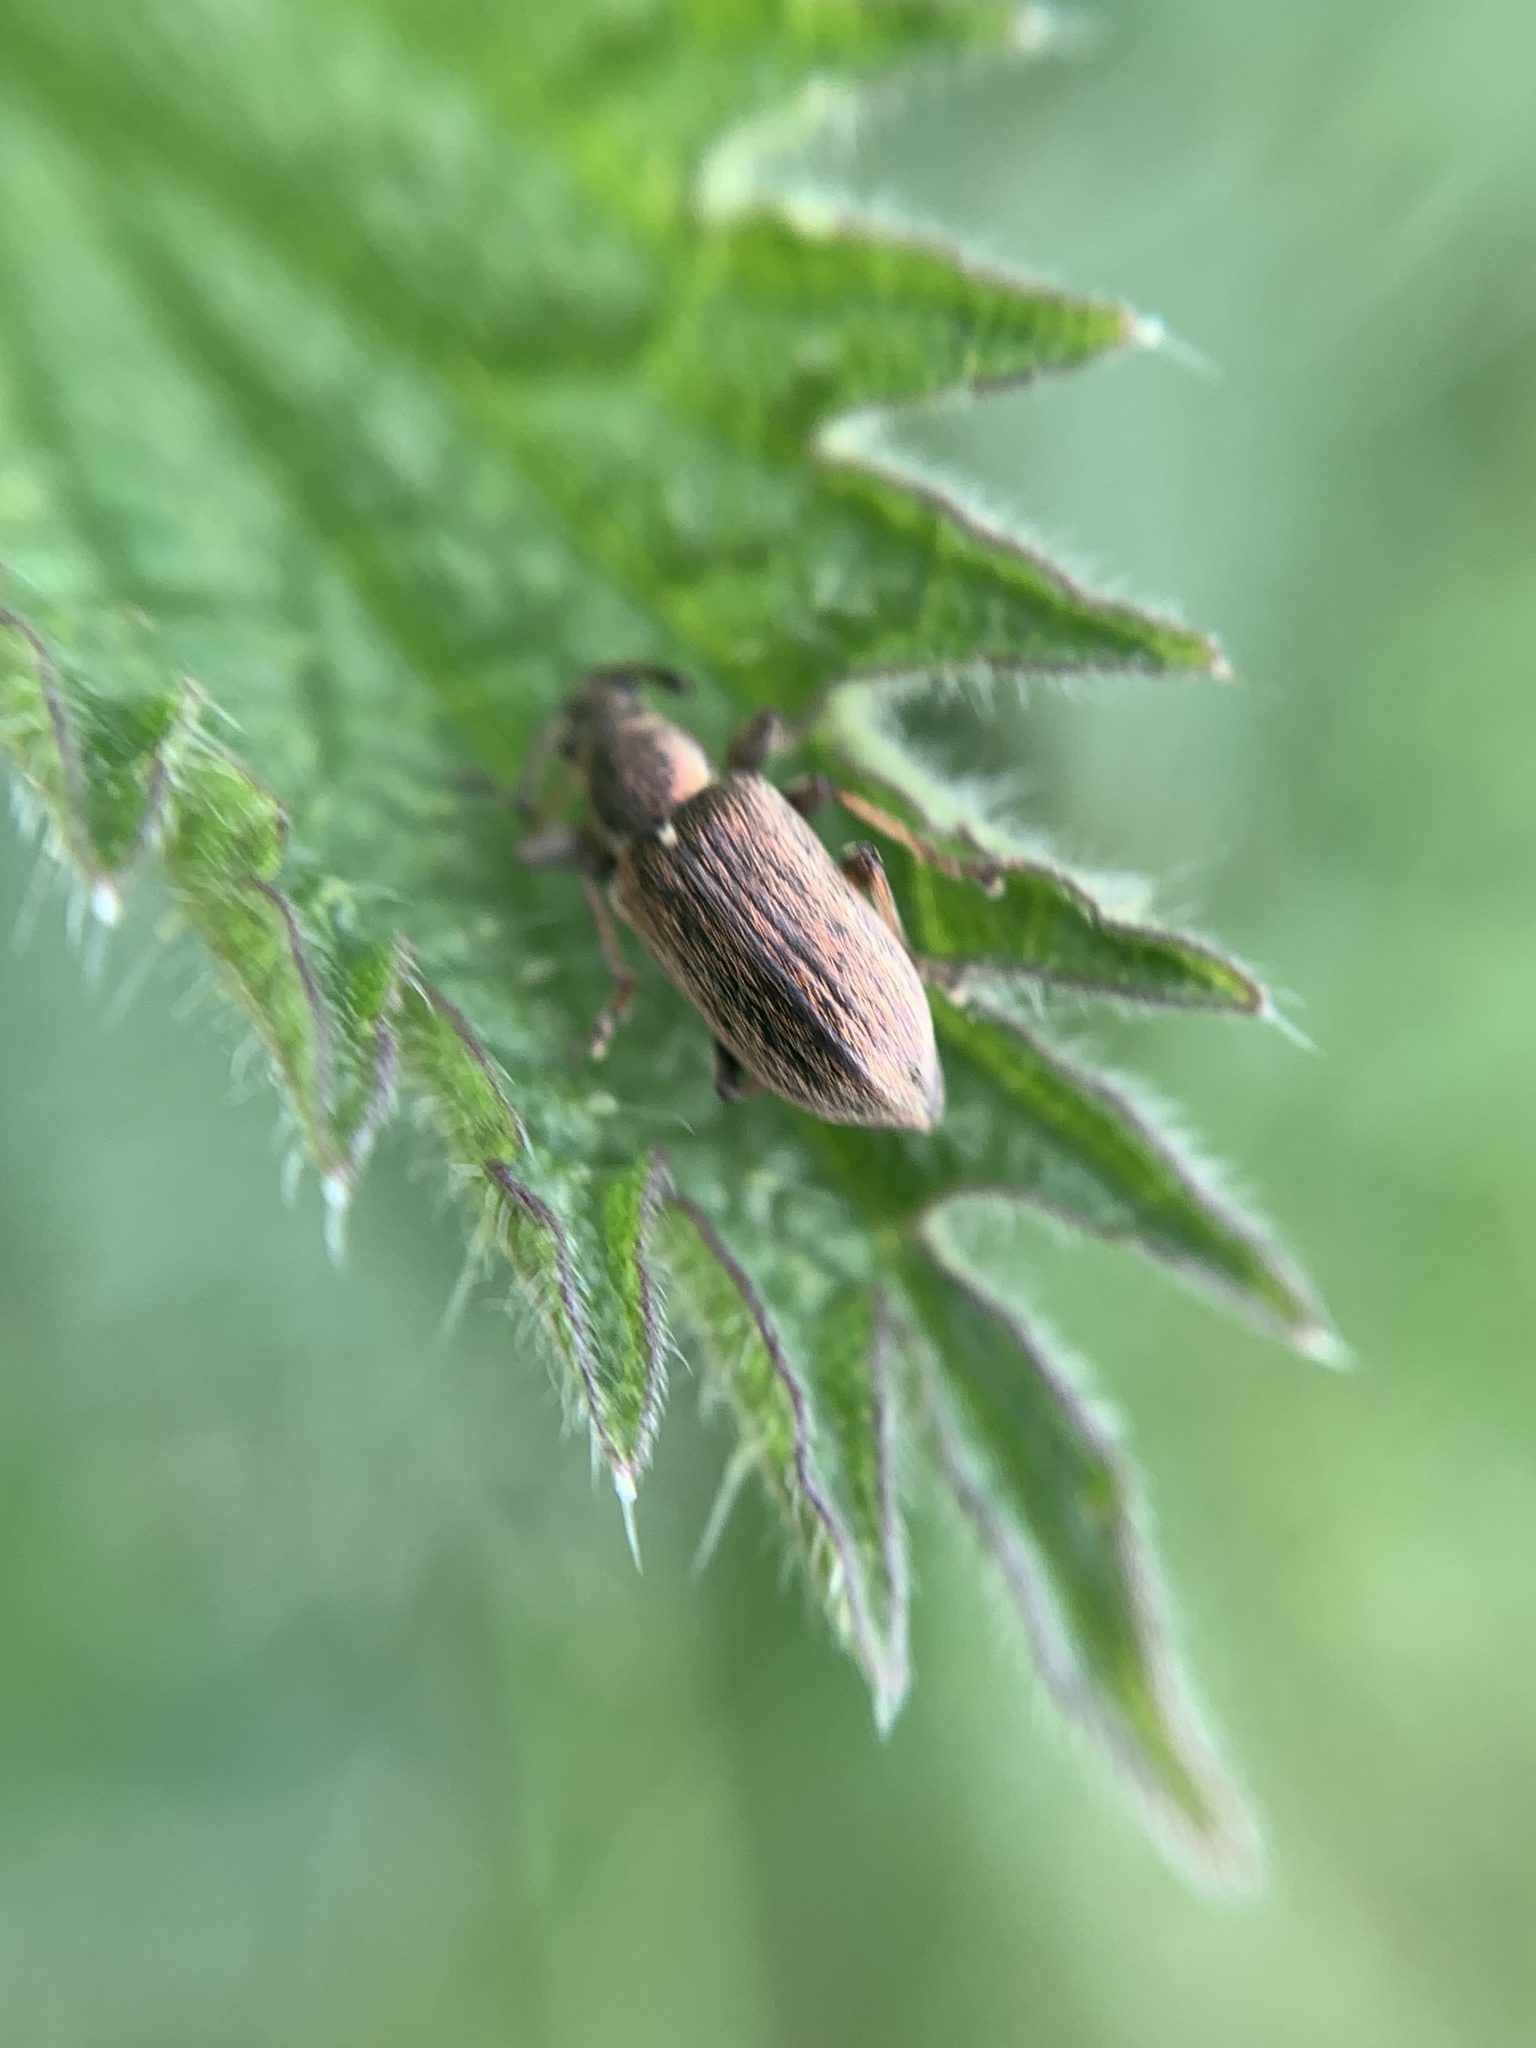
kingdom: Animalia
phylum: Arthropoda
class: Insecta
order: Coleoptera
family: Curculionidae
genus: Phyllobius
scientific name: Phyllobius pyri
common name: Common leaf weevil
